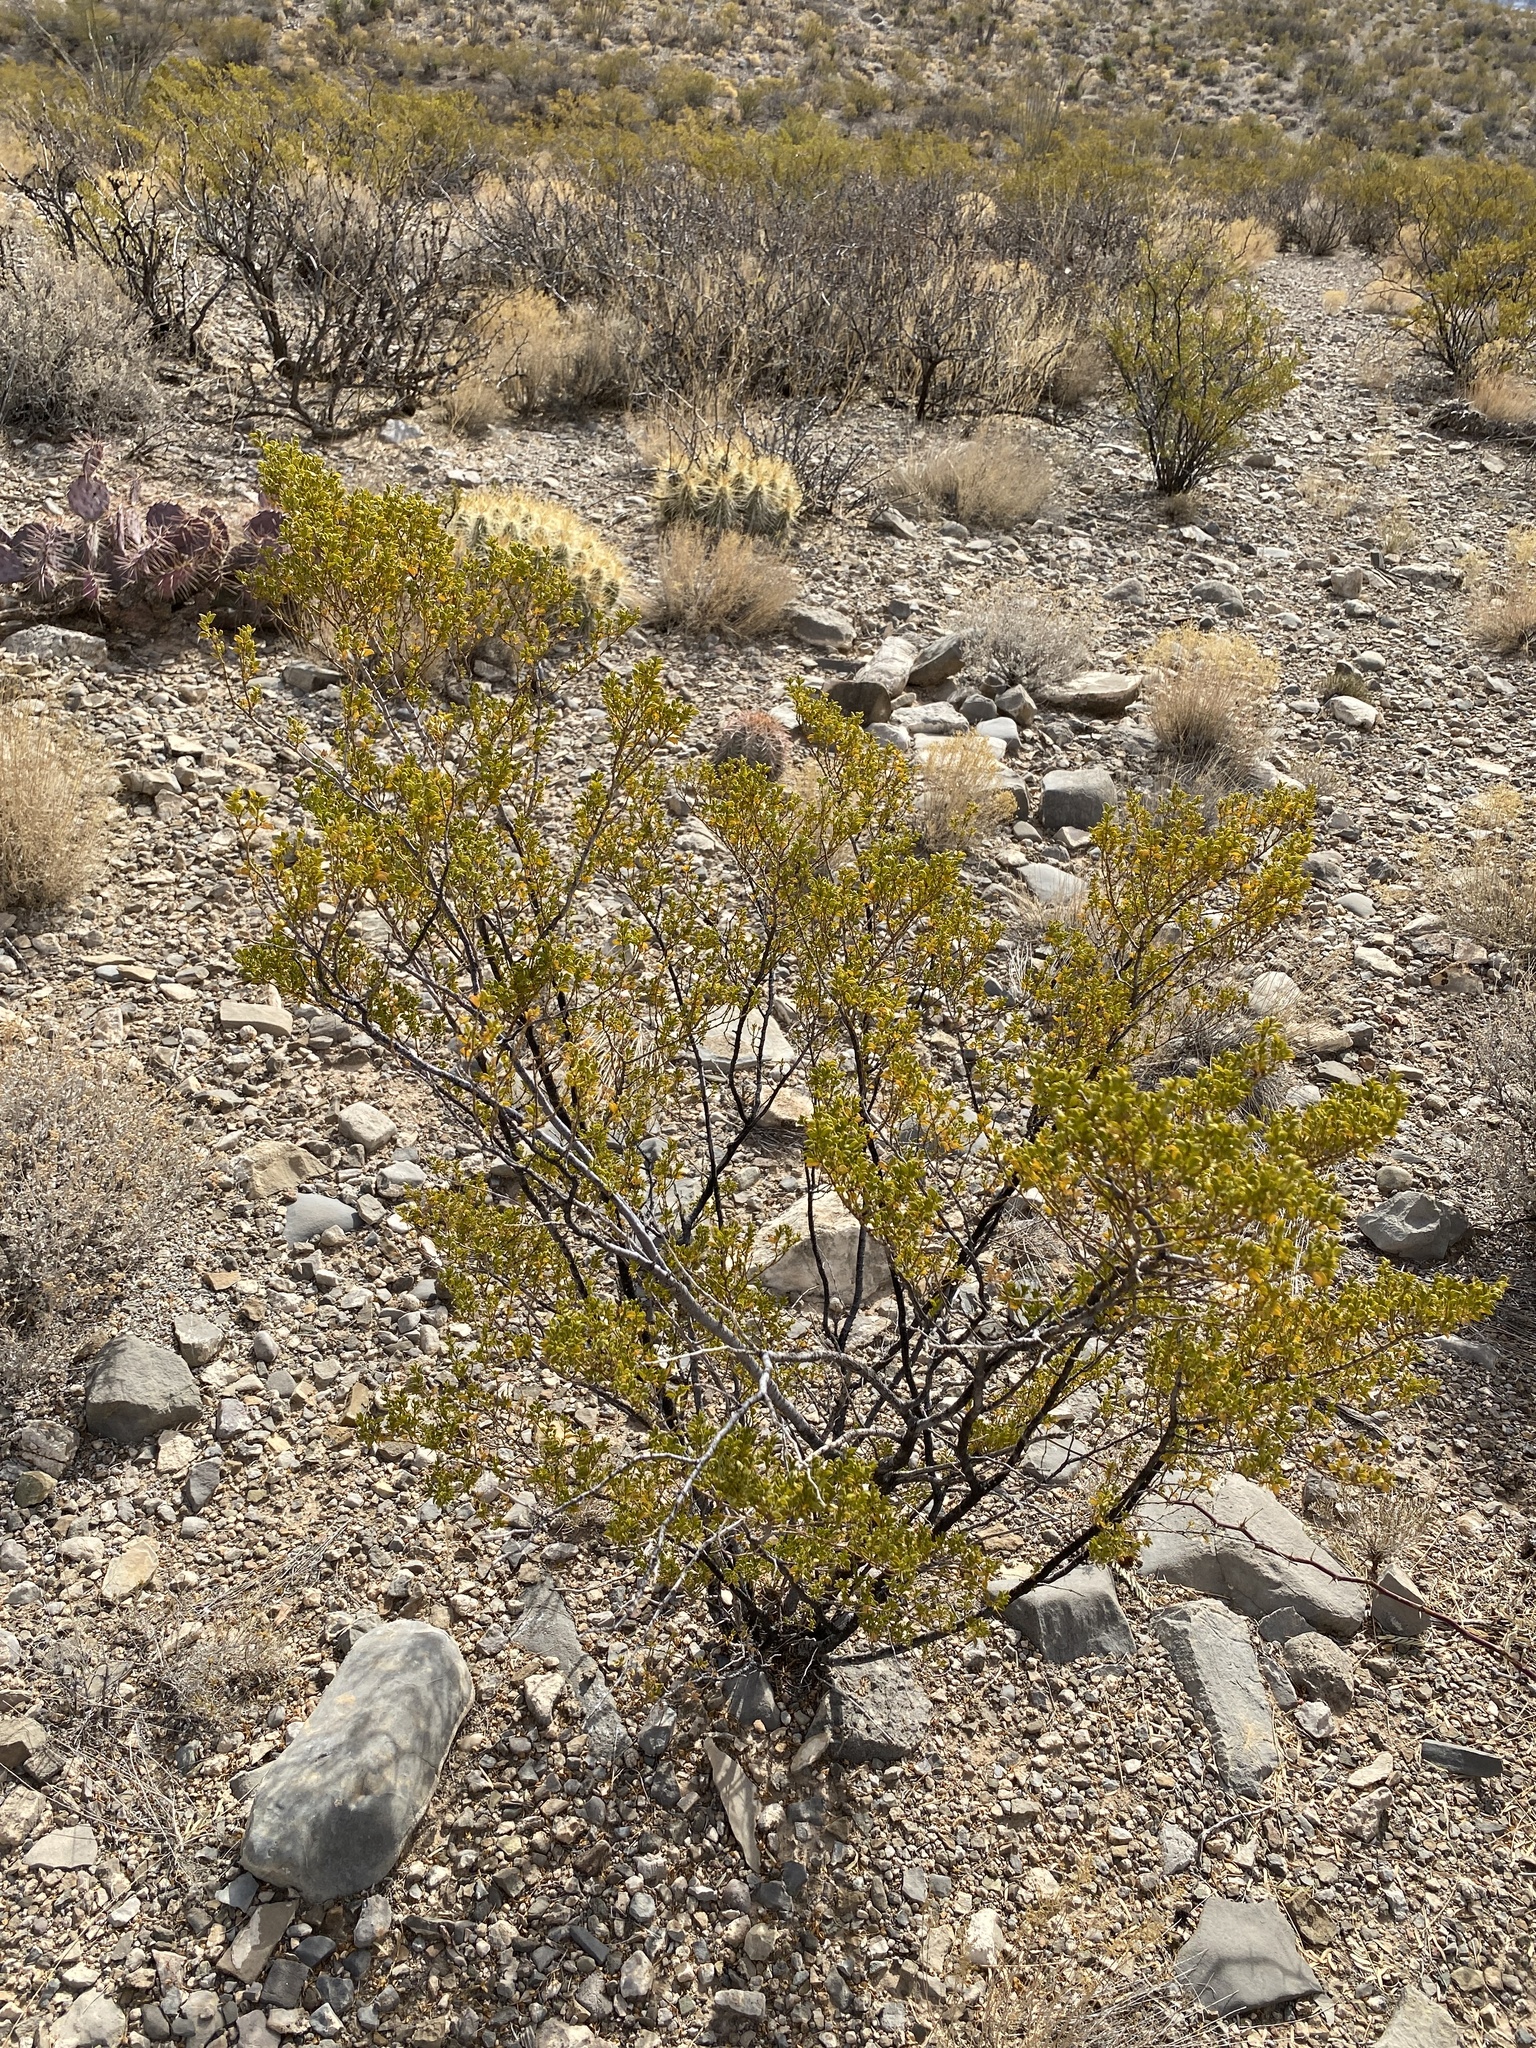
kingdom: Plantae
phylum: Tracheophyta
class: Magnoliopsida
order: Zygophyllales
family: Zygophyllaceae
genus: Larrea
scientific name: Larrea tridentata
